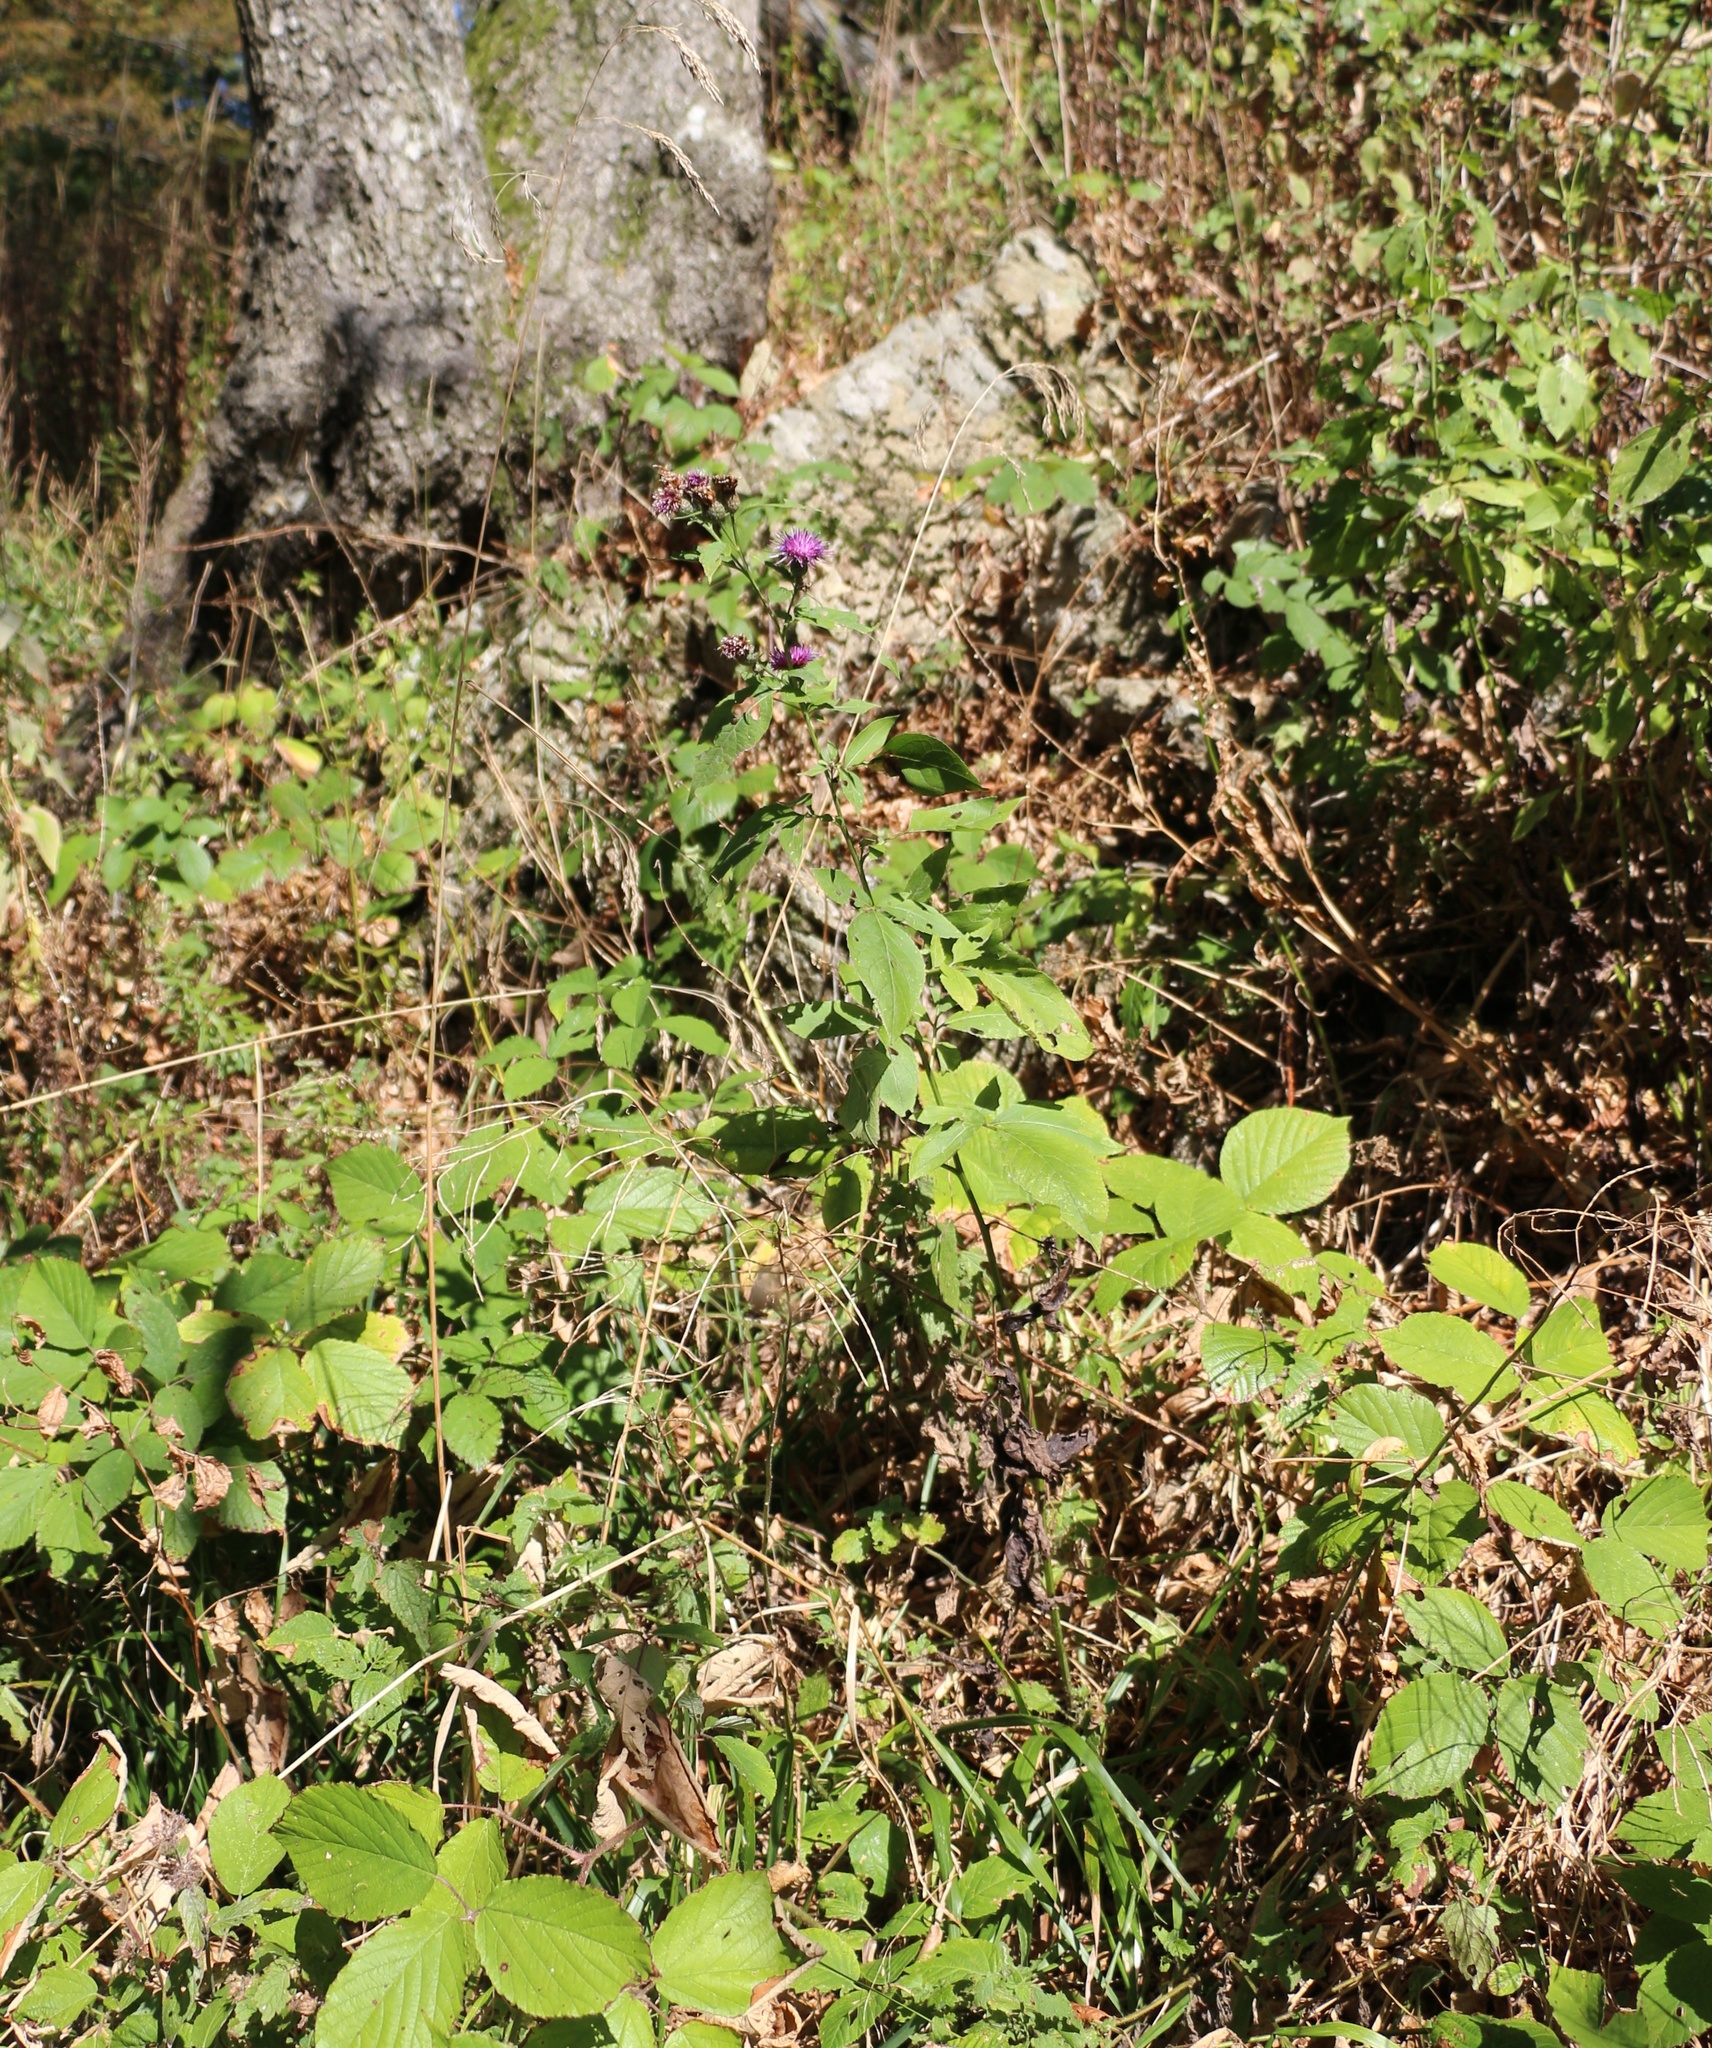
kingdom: Plantae
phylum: Tracheophyta
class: Magnoliopsida
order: Asterales
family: Asteraceae
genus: Klasea
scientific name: Klasea quinquefolia
